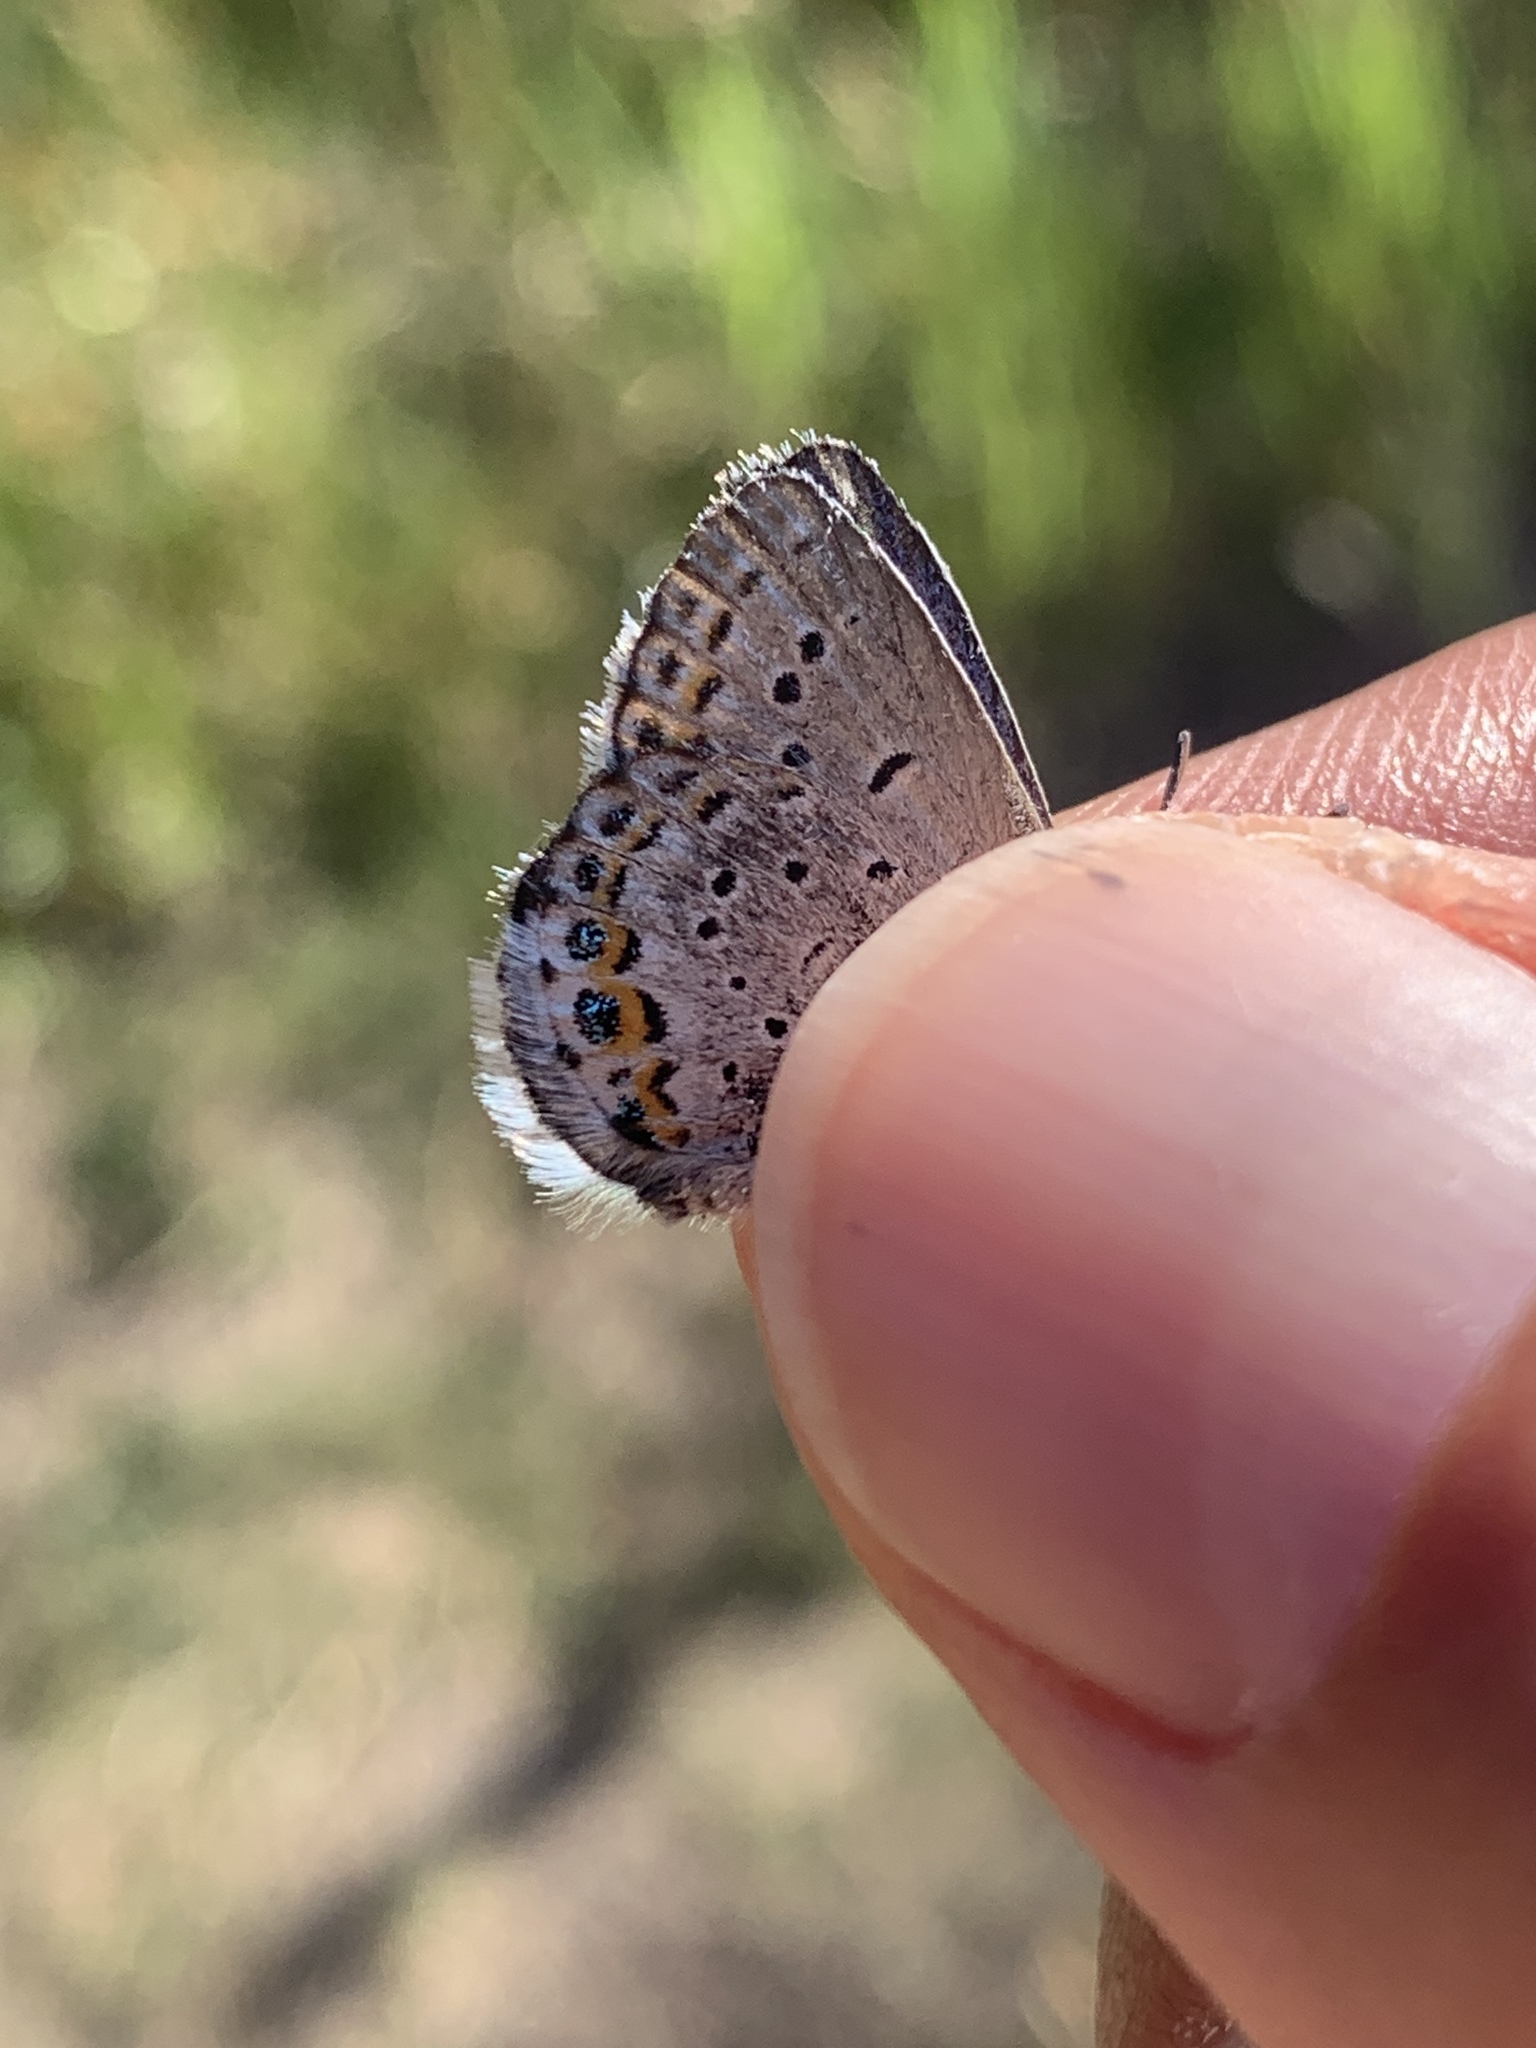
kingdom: Animalia
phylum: Arthropoda
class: Insecta
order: Lepidoptera
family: Lycaenidae
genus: Lycaeides
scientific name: Lycaeides idas
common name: Northern blue
